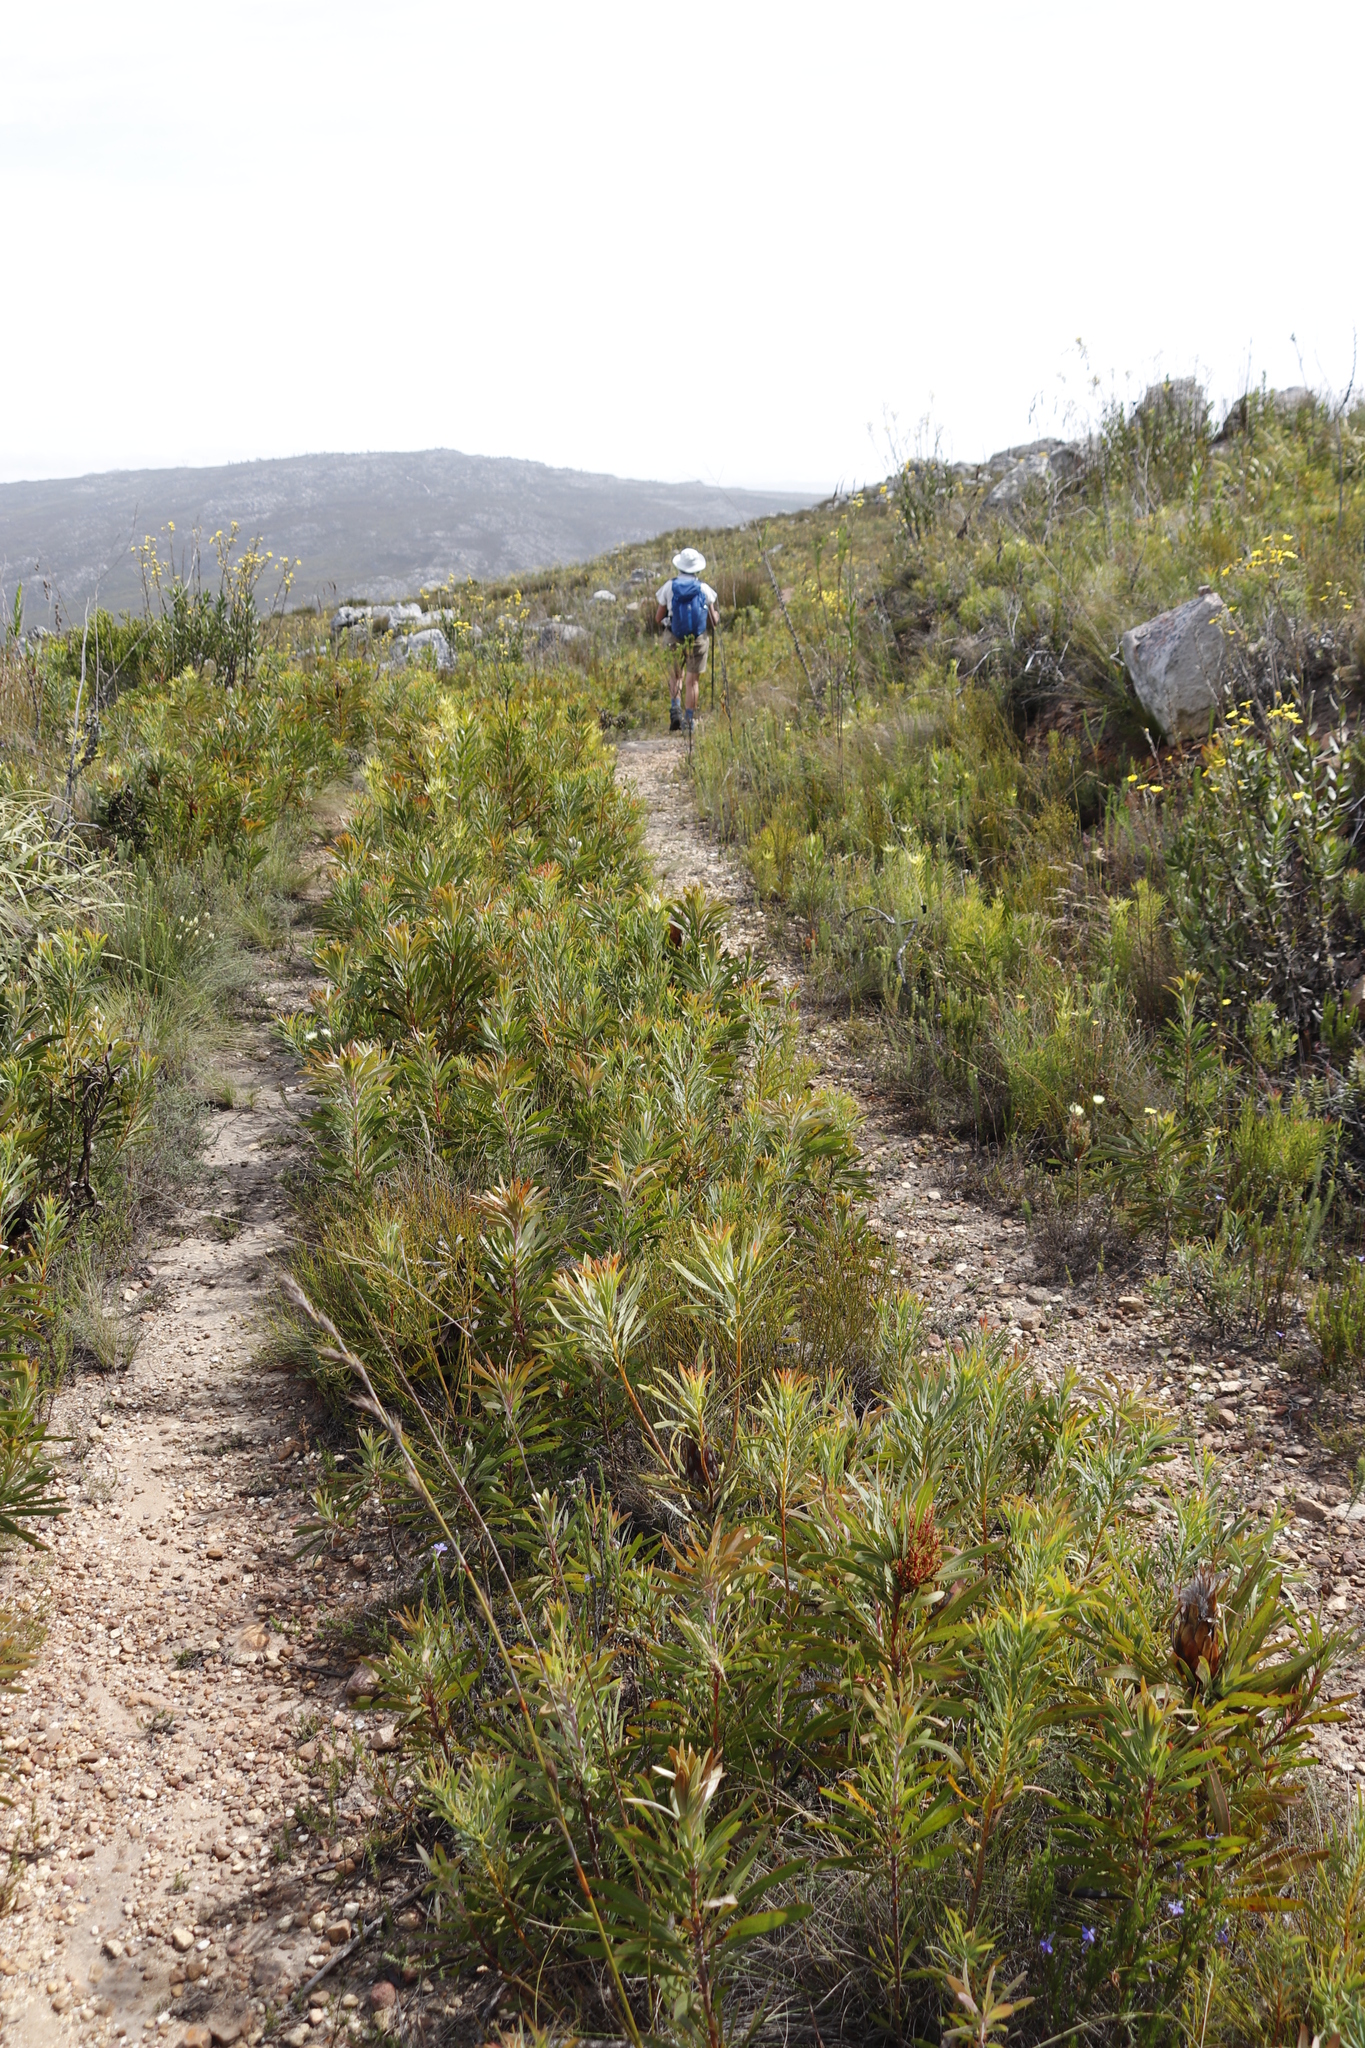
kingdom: Plantae
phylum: Tracheophyta
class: Magnoliopsida
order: Proteales
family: Proteaceae
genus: Protea
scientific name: Protea repens
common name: Sugarbush
